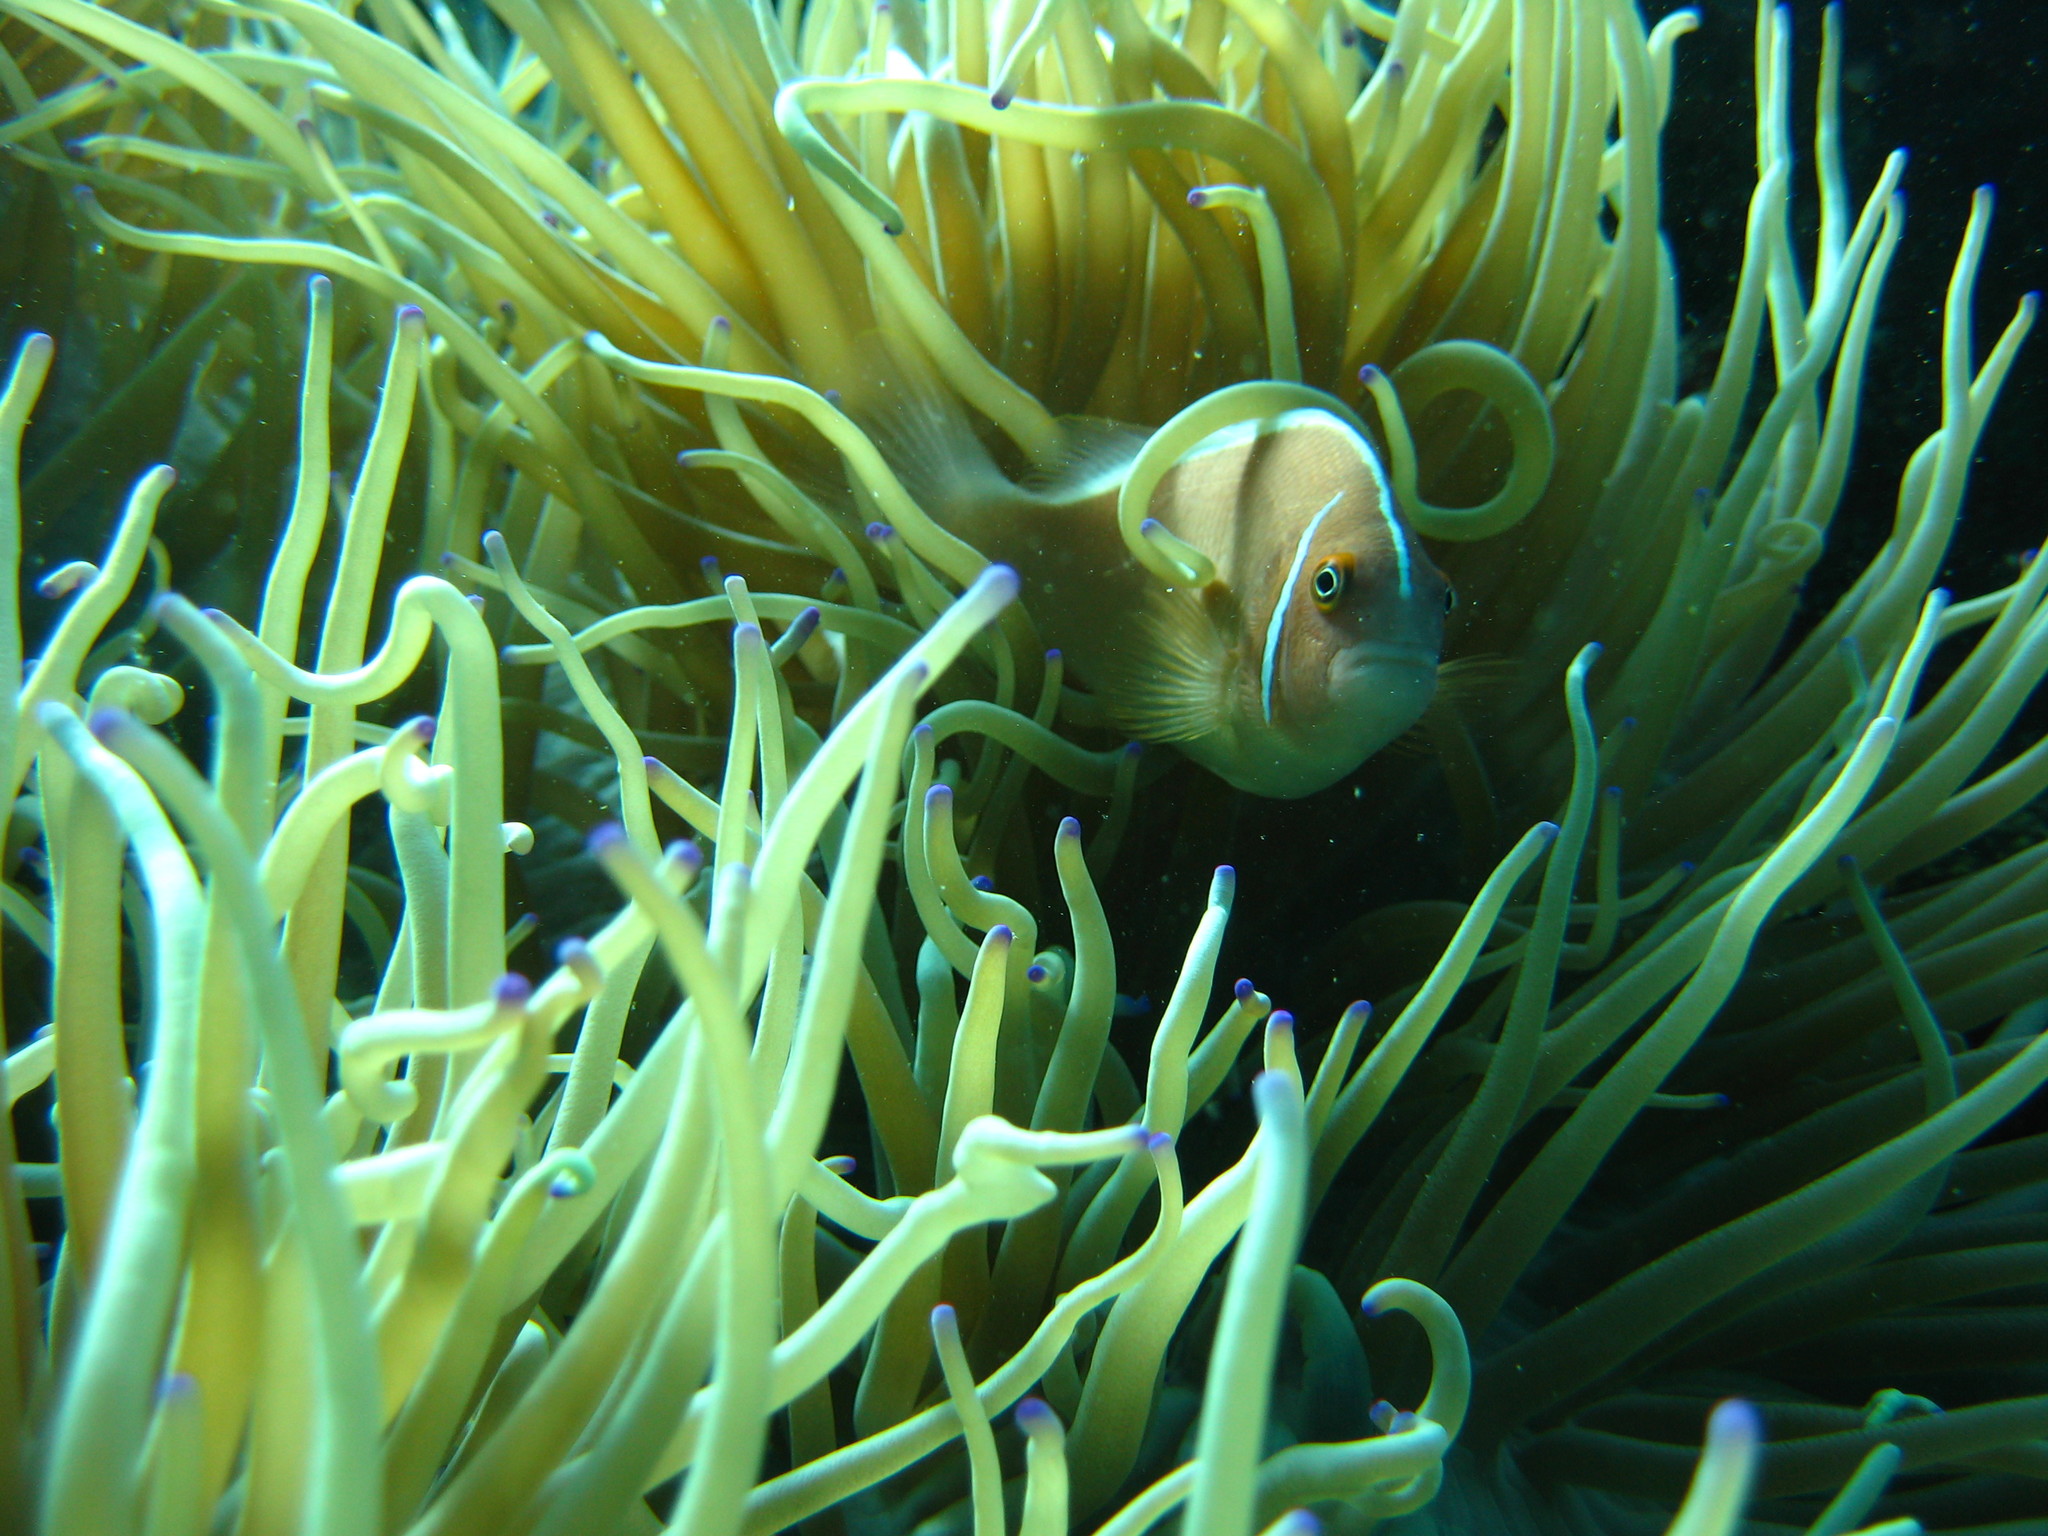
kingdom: Animalia
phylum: Chordata
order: Perciformes
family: Pomacentridae
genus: Amphiprion
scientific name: Amphiprion perideraion
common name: Pink anemonefish
